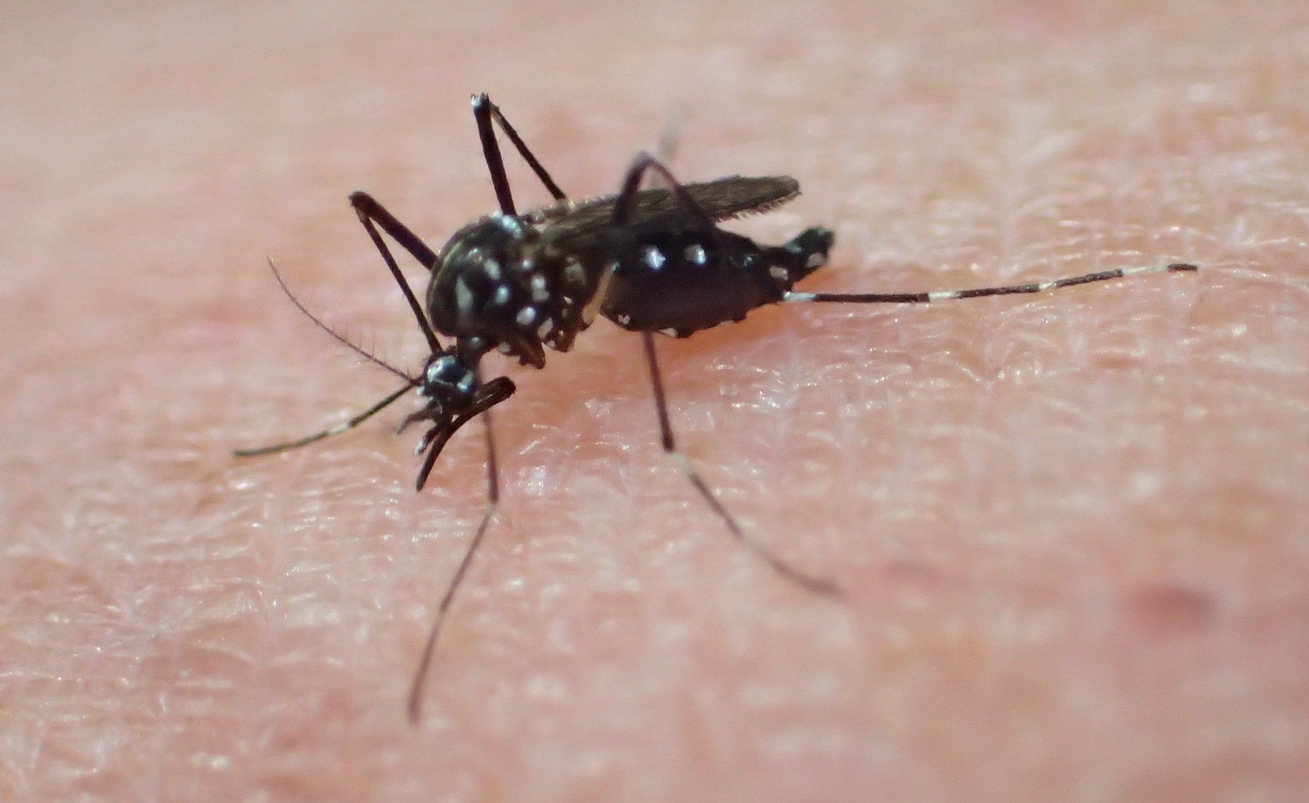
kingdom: Animalia
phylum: Arthropoda
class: Insecta
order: Diptera
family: Culicidae
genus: Aedes
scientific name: Aedes poweri
